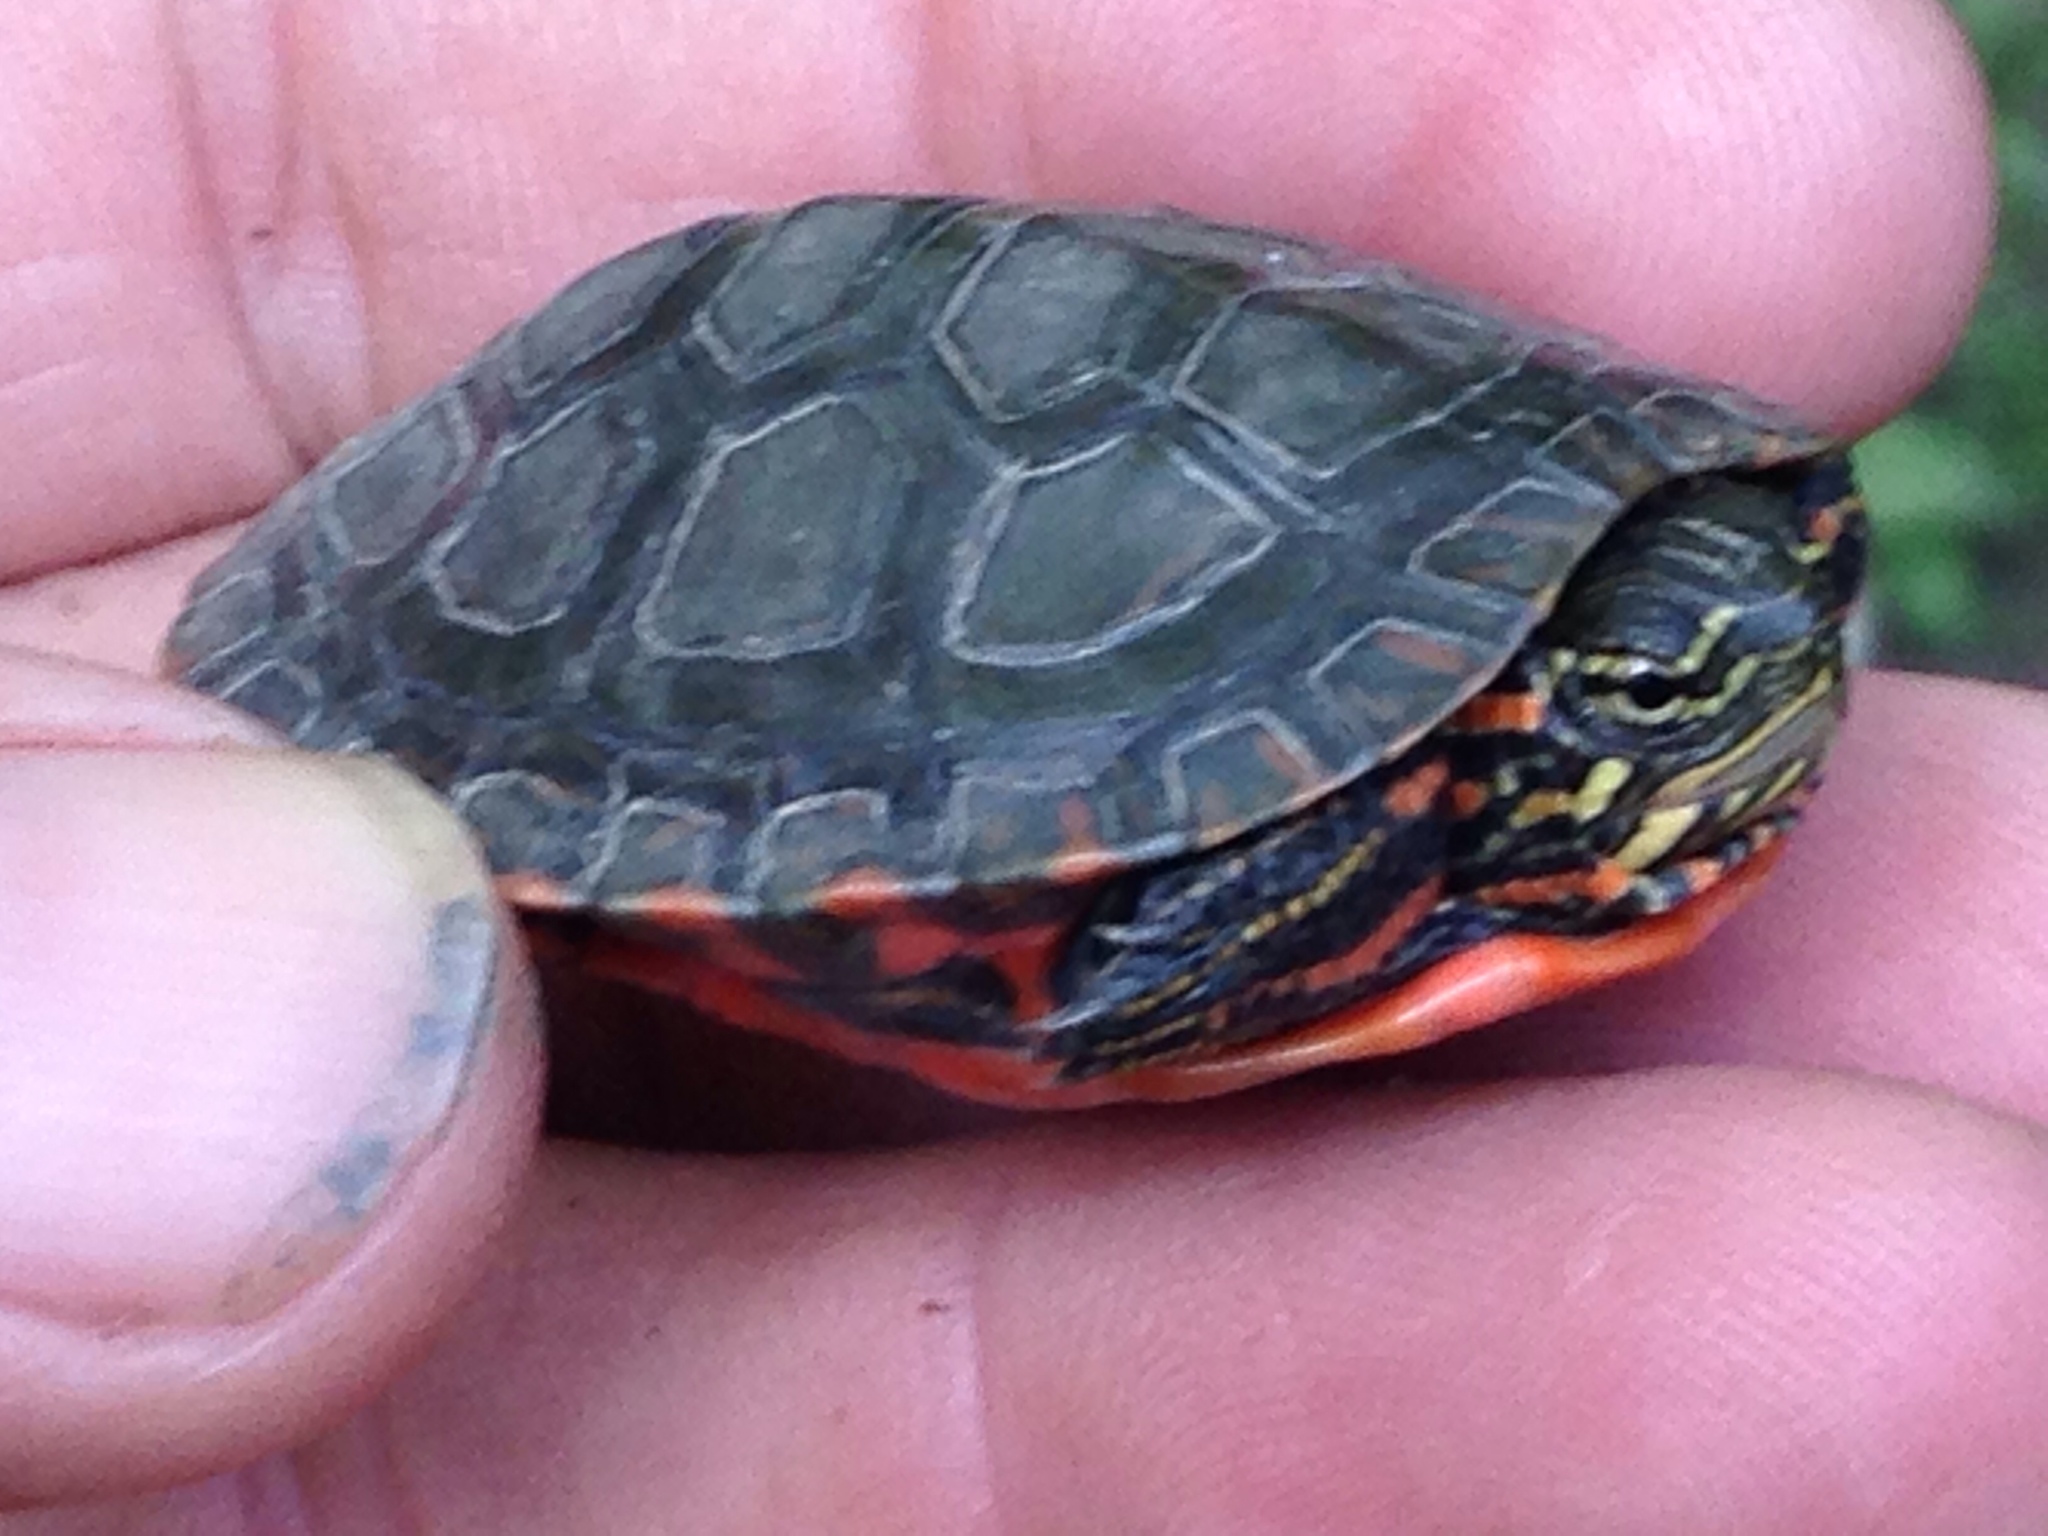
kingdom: Animalia
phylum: Chordata
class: Testudines
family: Emydidae
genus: Chrysemys
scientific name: Chrysemys picta
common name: Painted turtle
